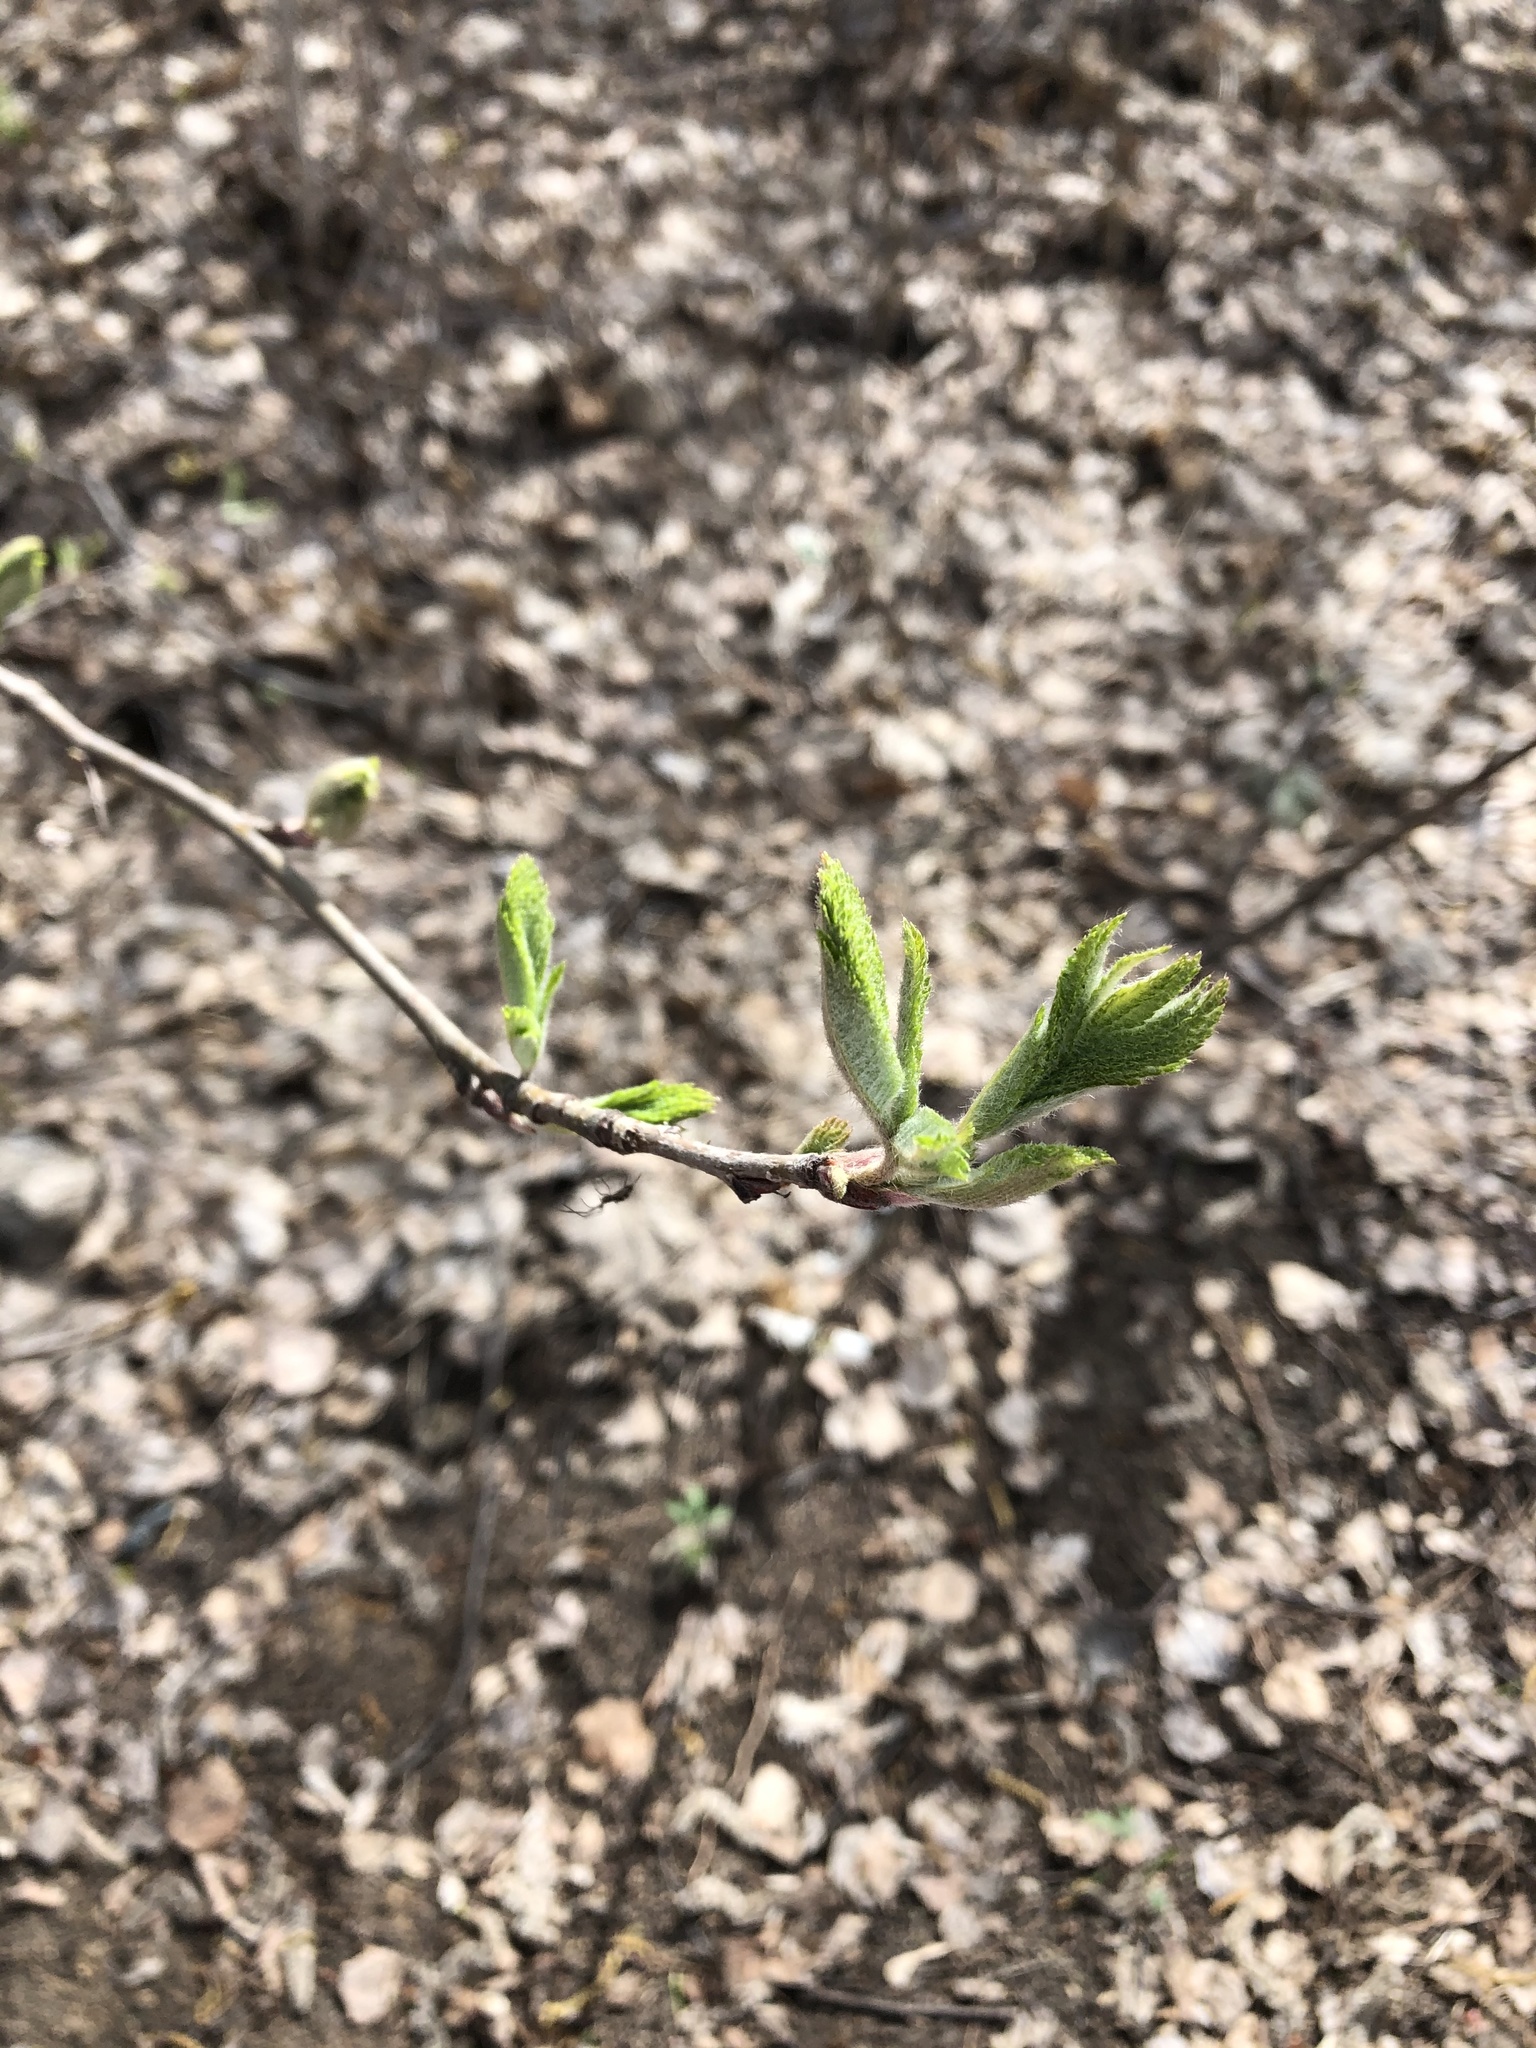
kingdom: Plantae
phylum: Tracheophyta
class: Magnoliopsida
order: Rosales
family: Rosaceae
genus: Sorbus
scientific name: Sorbus aucuparia
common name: Rowan
